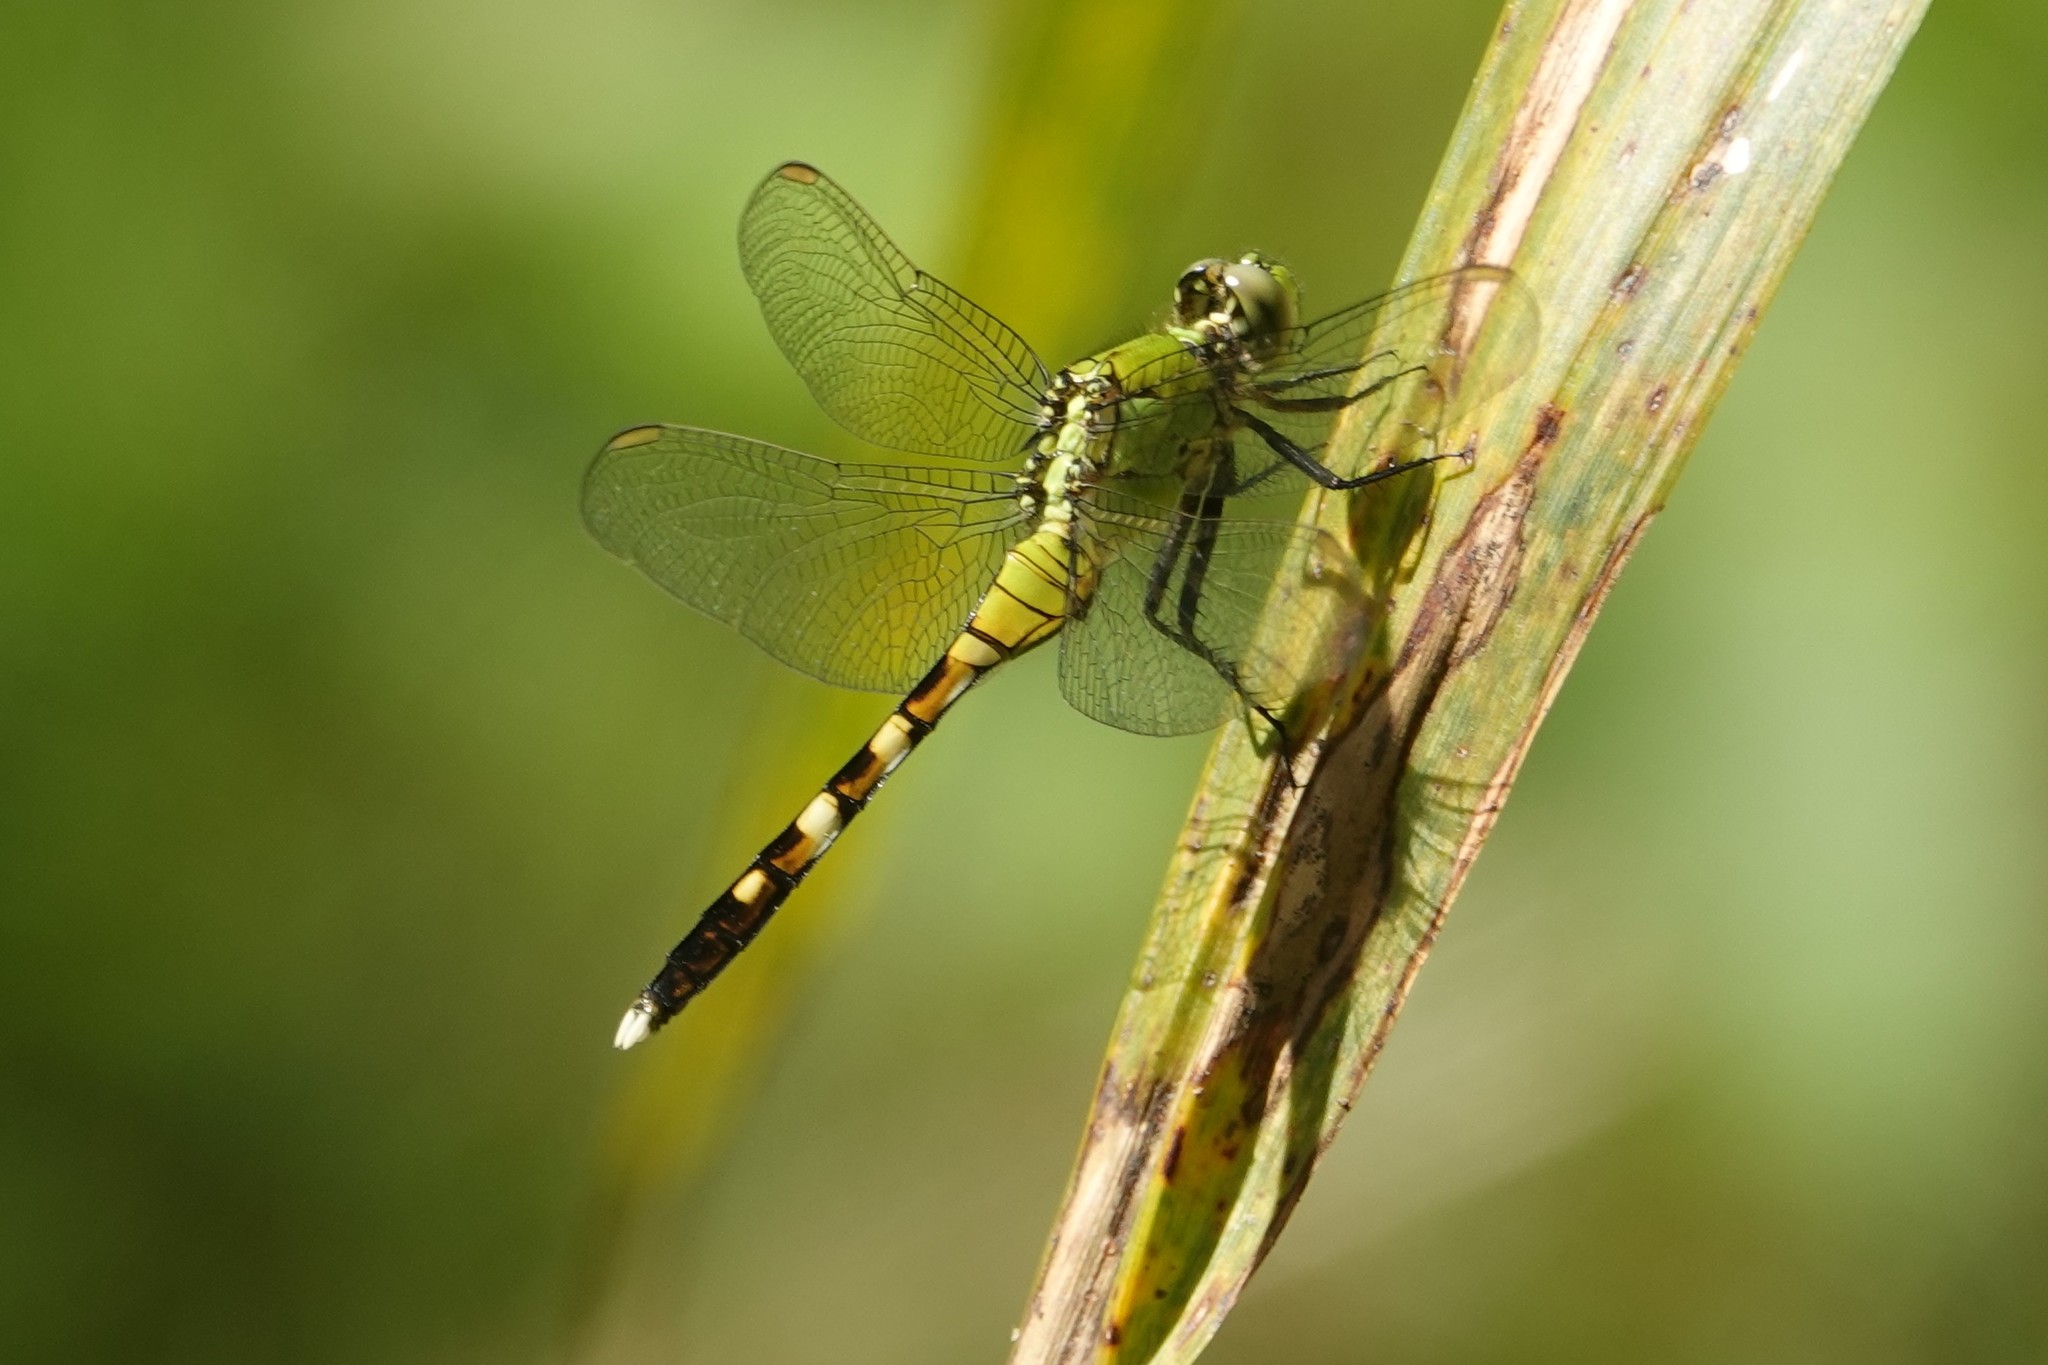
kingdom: Animalia
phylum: Arthropoda
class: Insecta
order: Odonata
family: Libellulidae
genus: Erythemis
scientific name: Erythemis simplicicollis
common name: Eastern pondhawk
